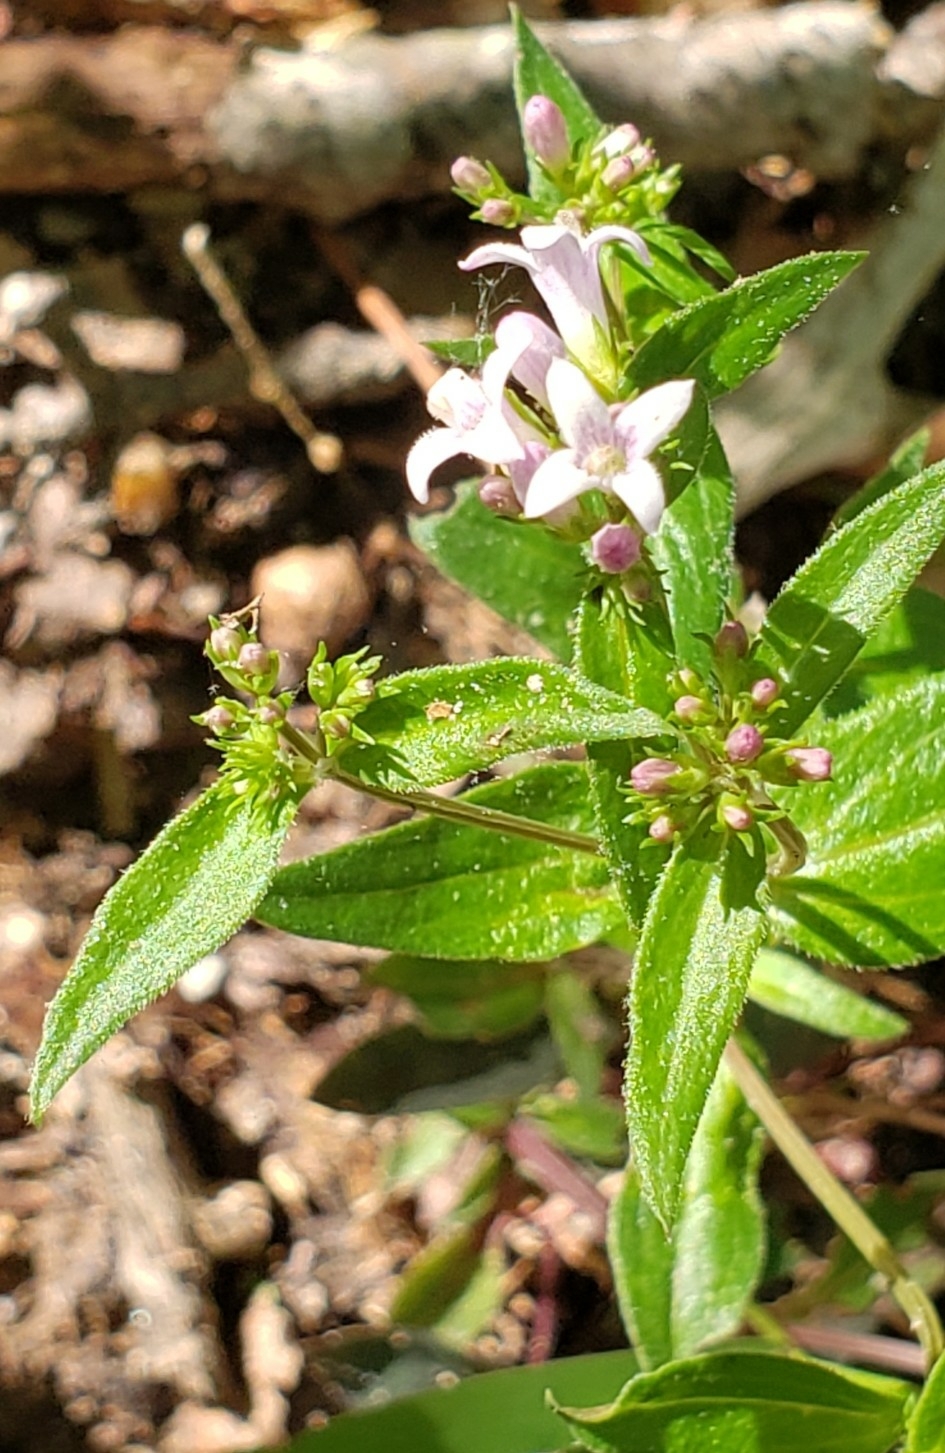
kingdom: Plantae
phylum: Tracheophyta
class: Magnoliopsida
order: Gentianales
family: Rubiaceae
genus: Houstonia
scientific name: Houstonia purpurea
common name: Summer bluet
